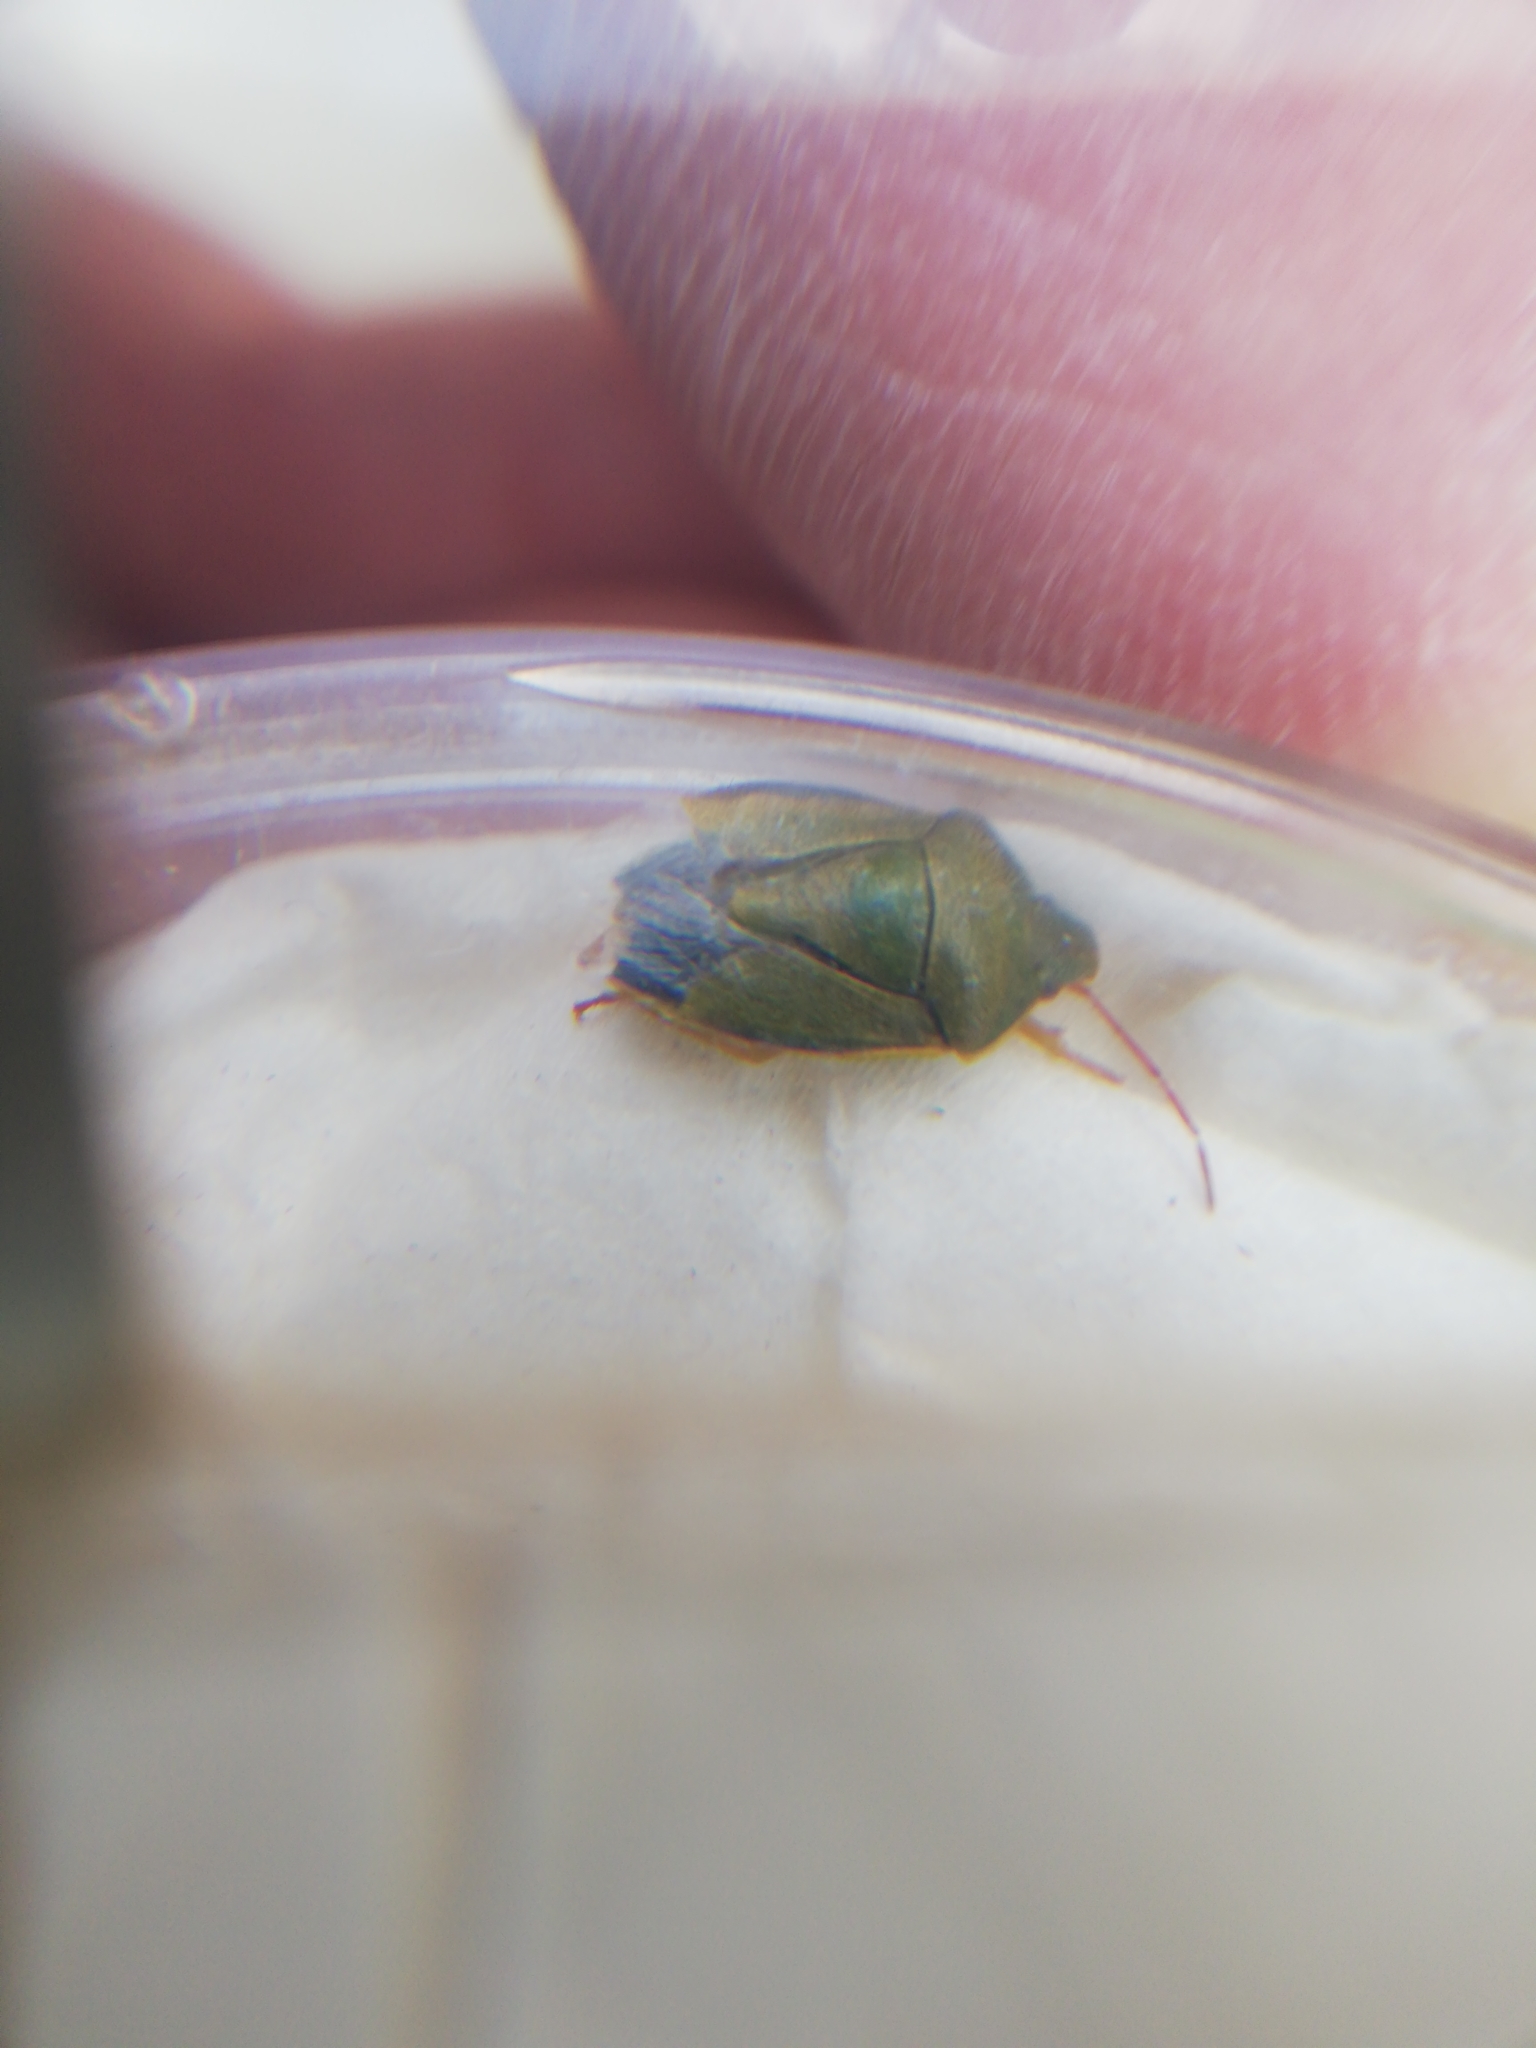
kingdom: Animalia
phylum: Arthropoda
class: Insecta
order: Hemiptera
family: Pentatomidae
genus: Piezodorus
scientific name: Piezodorus lituratus
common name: Stink bug
